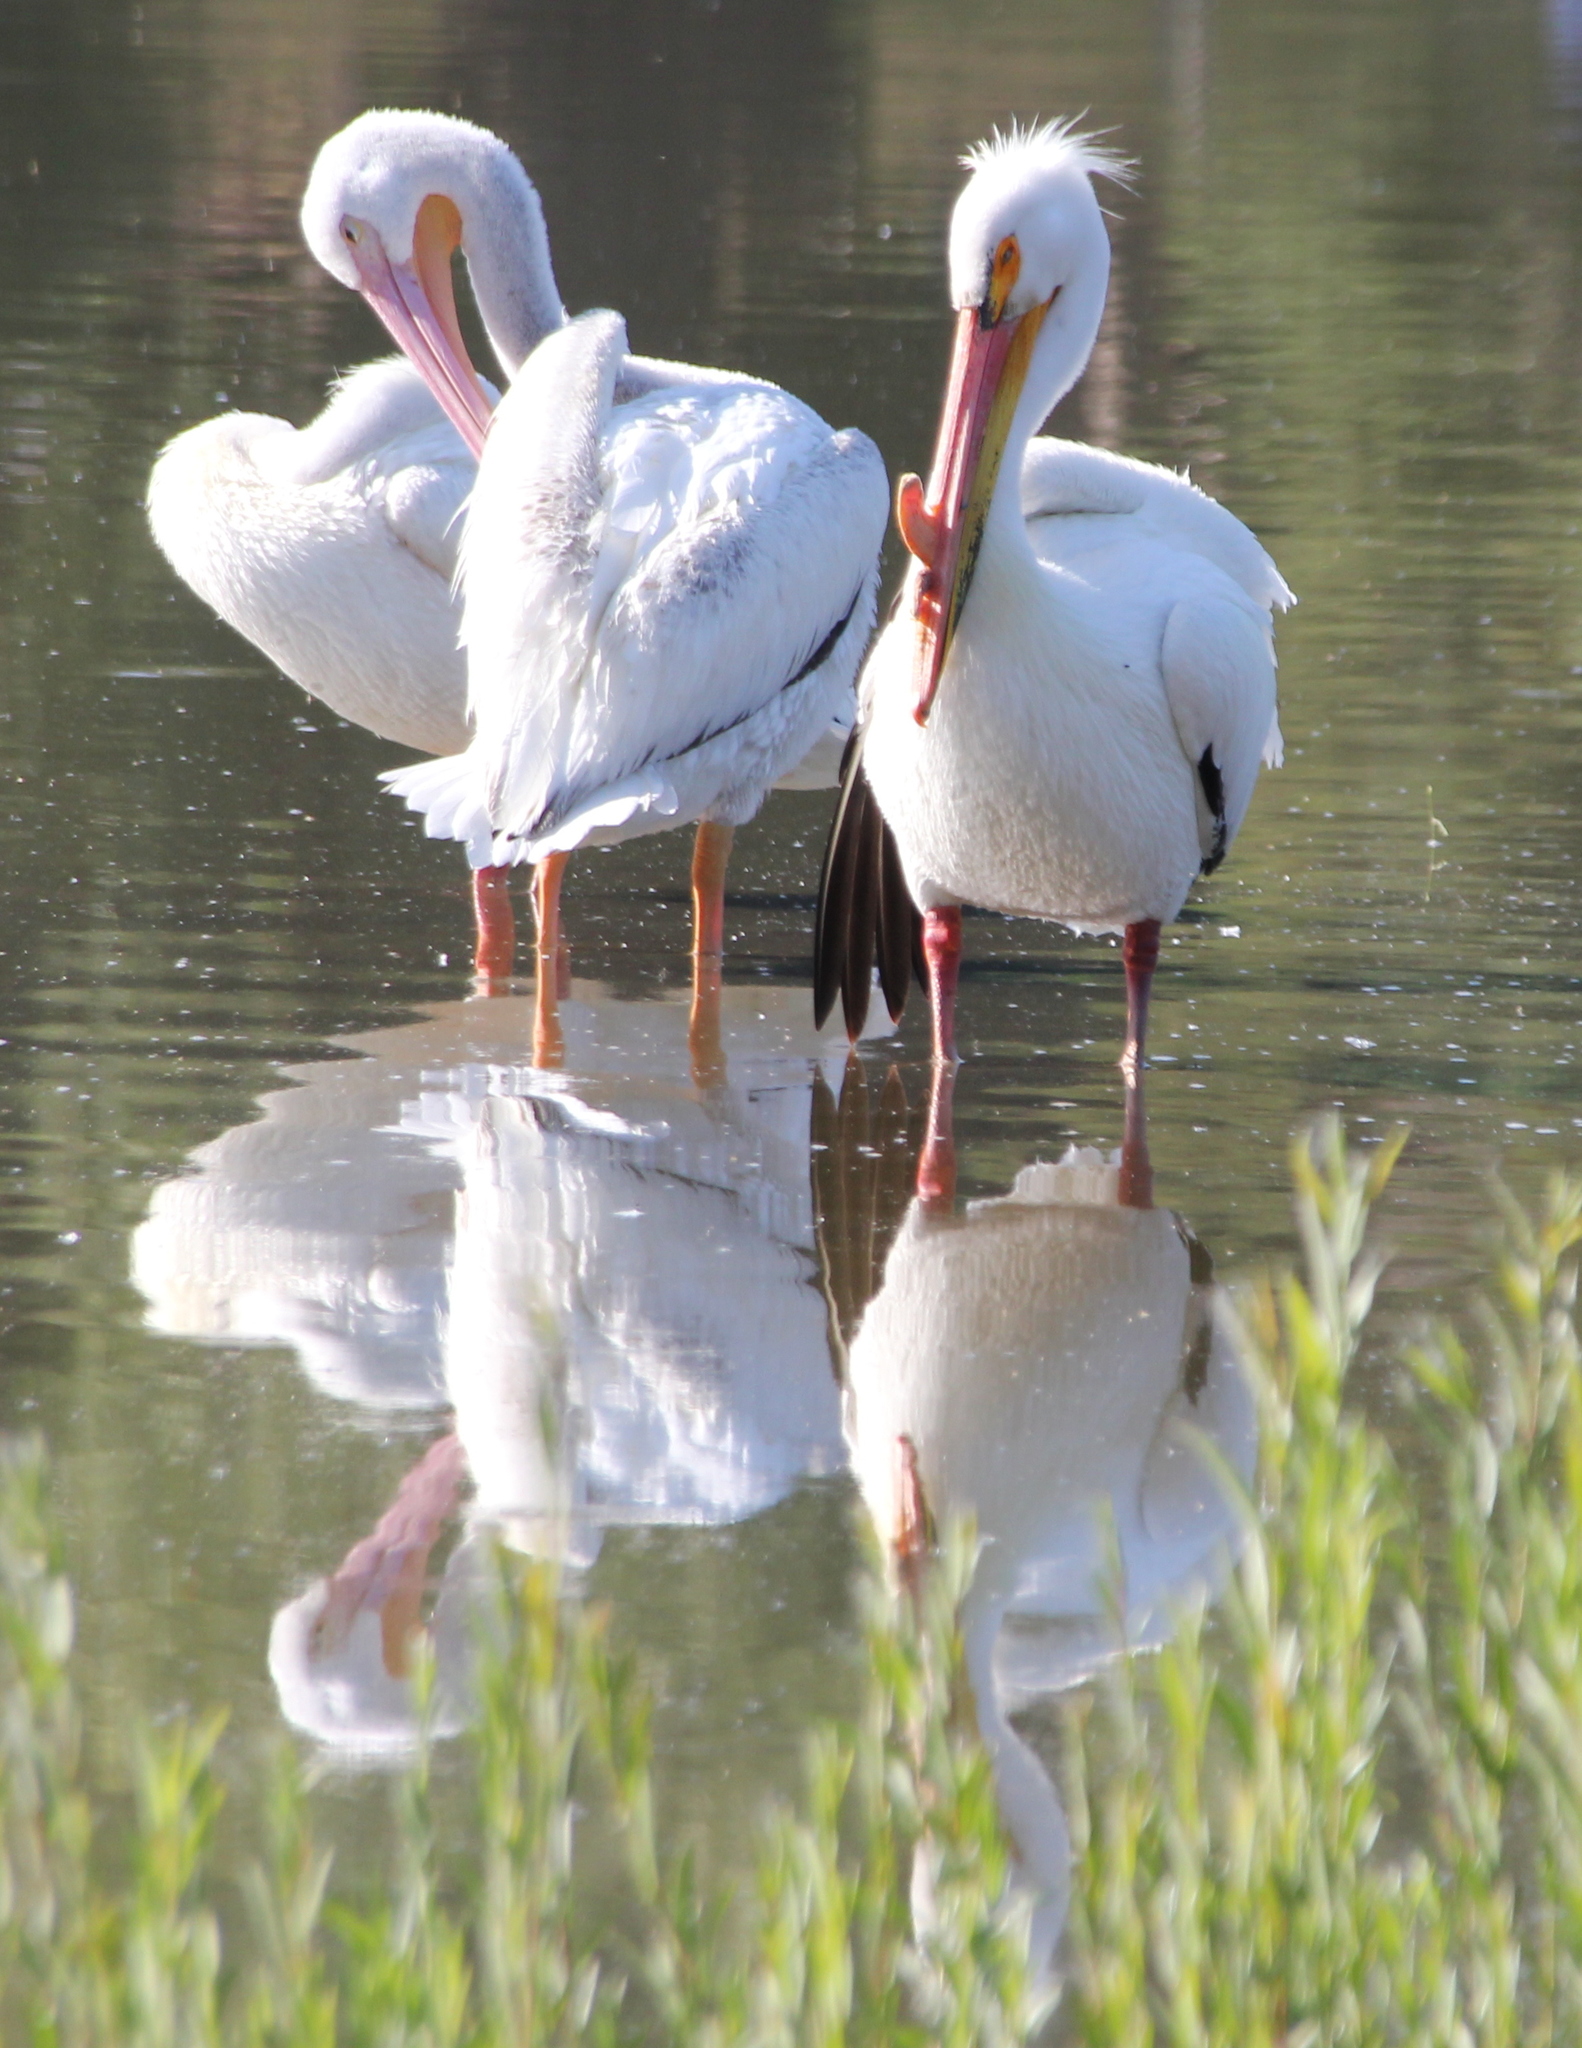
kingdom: Animalia
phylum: Chordata
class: Aves
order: Pelecaniformes
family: Pelecanidae
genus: Pelecanus
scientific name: Pelecanus erythrorhynchos
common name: American white pelican
